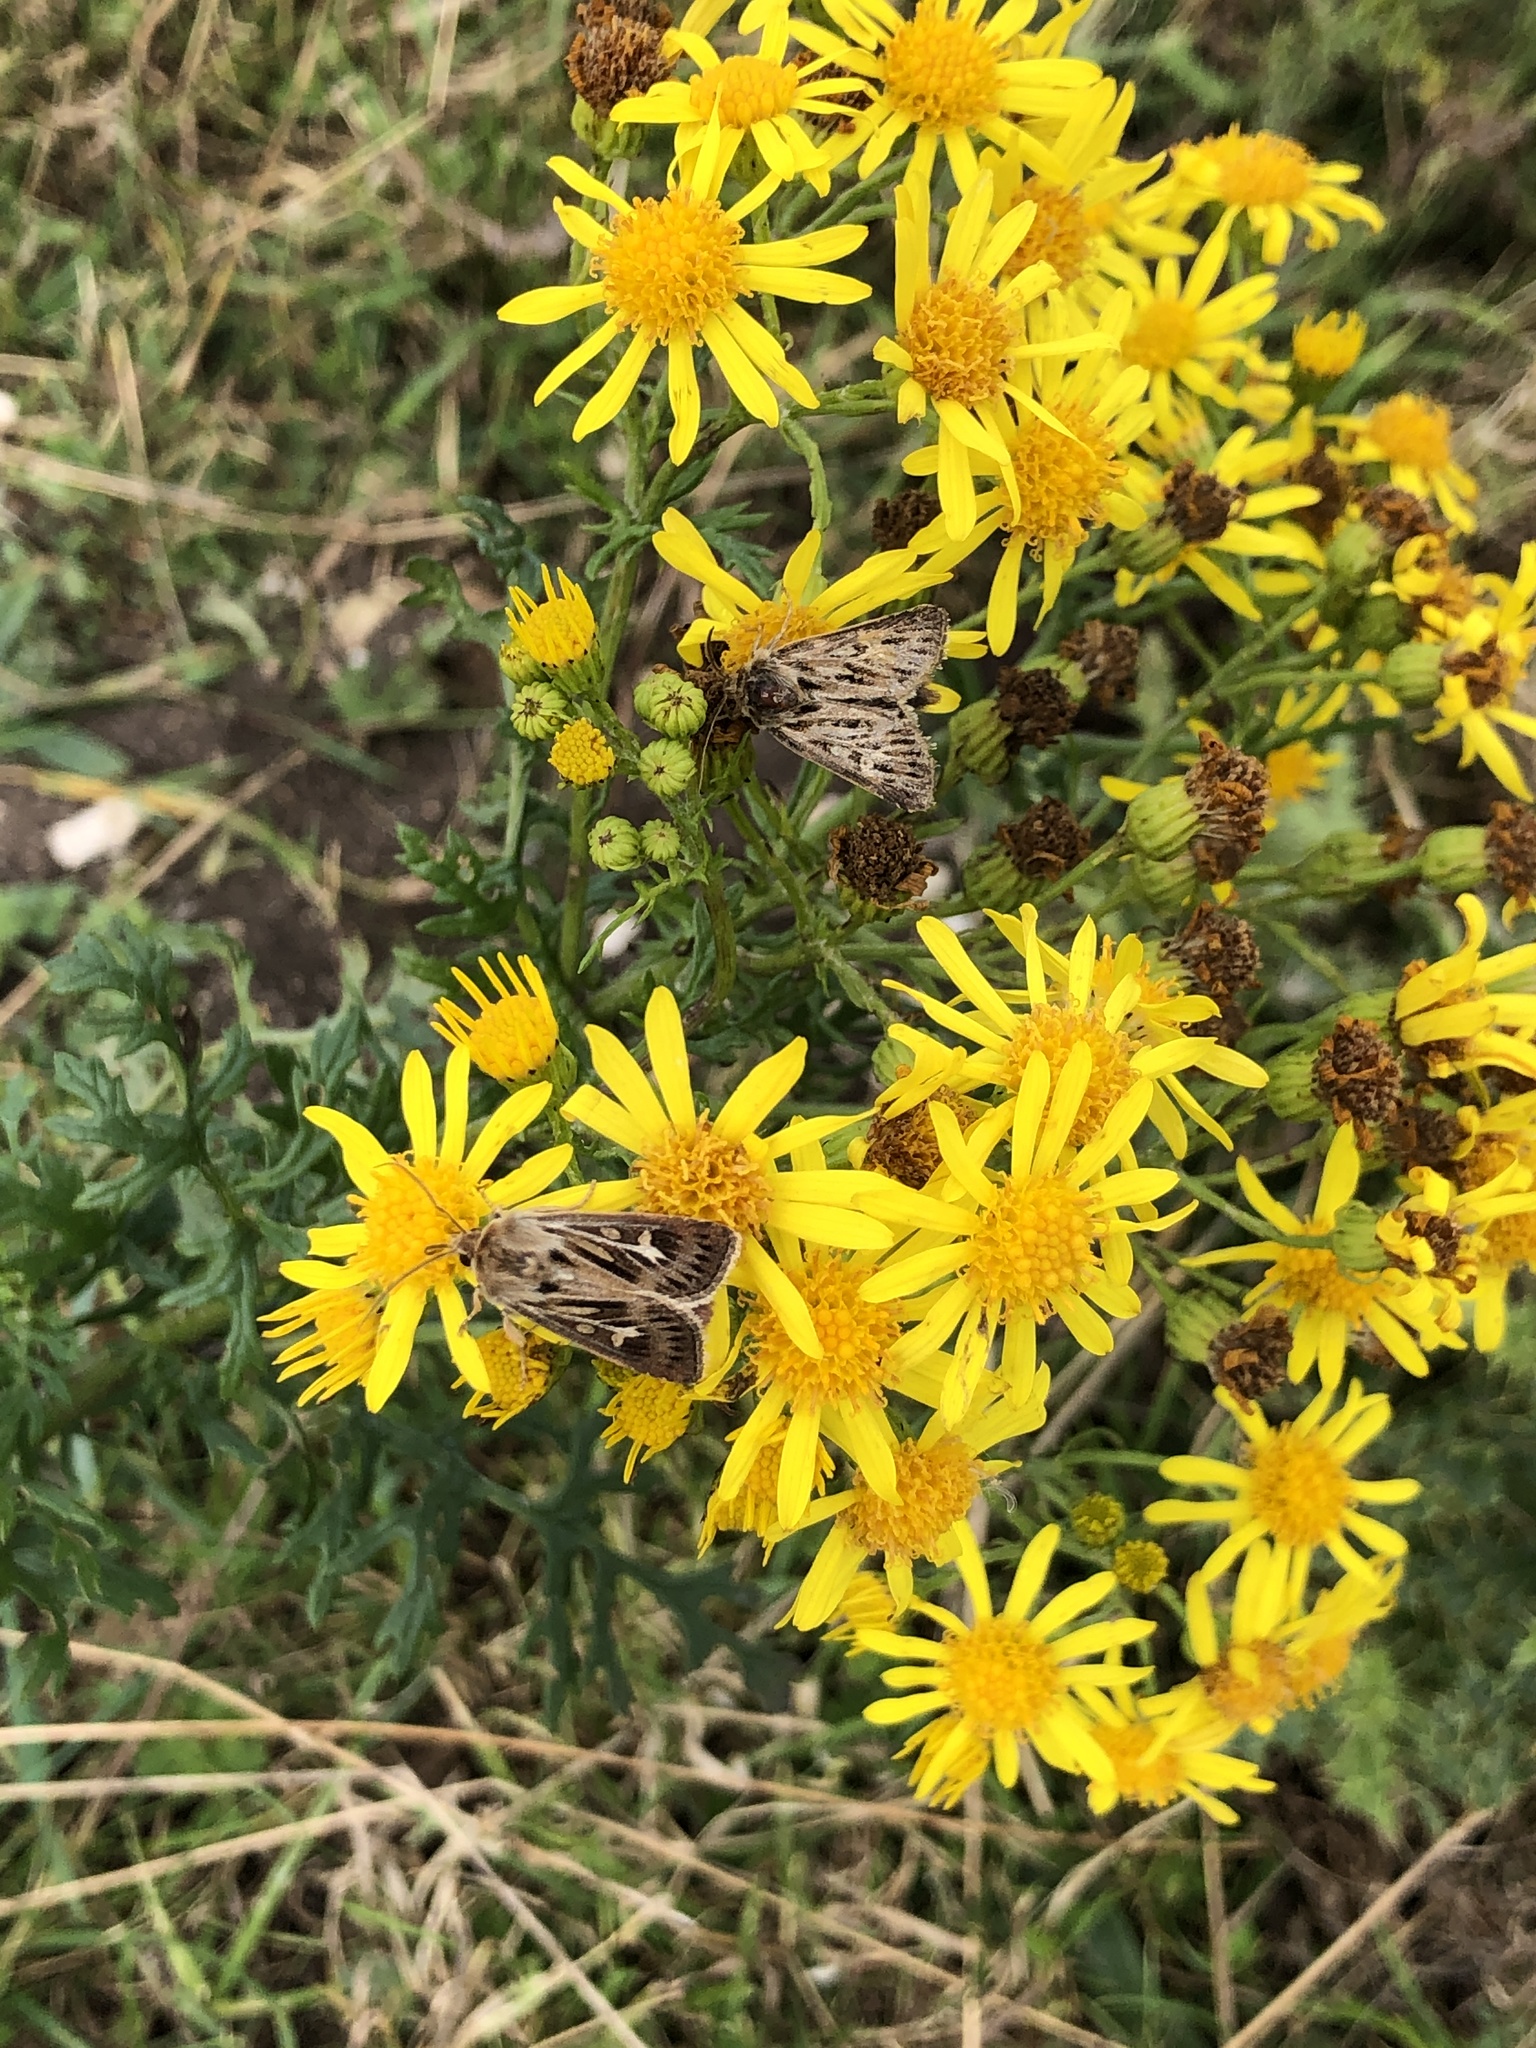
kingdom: Animalia
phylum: Arthropoda
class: Insecta
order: Lepidoptera
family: Noctuidae
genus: Cerapteryx
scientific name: Cerapteryx graminis
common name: Antler moth
